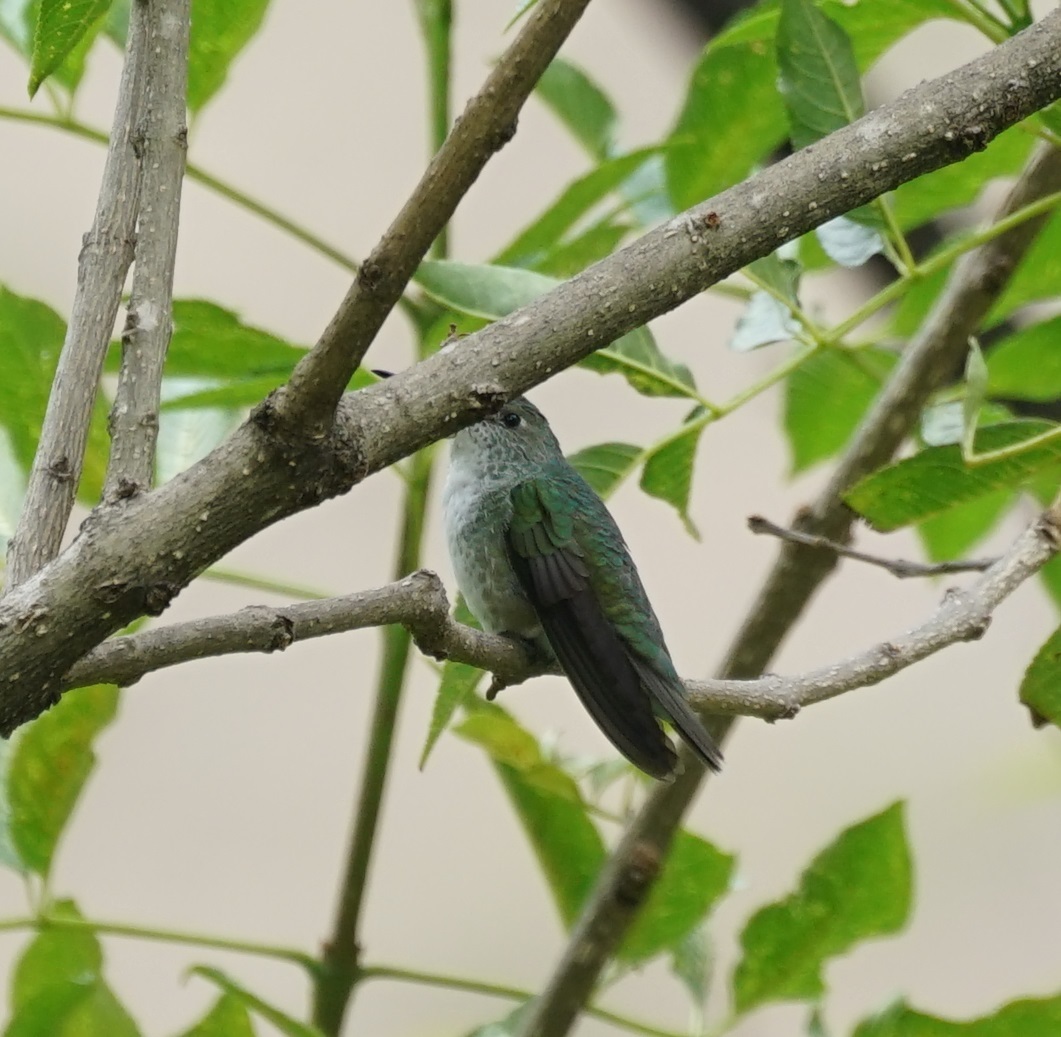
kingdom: Animalia
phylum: Chordata
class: Aves
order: Apodiformes
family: Trochilidae
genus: Elliotomyia
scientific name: Elliotomyia chionogaster
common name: White-bellied hummingbird
